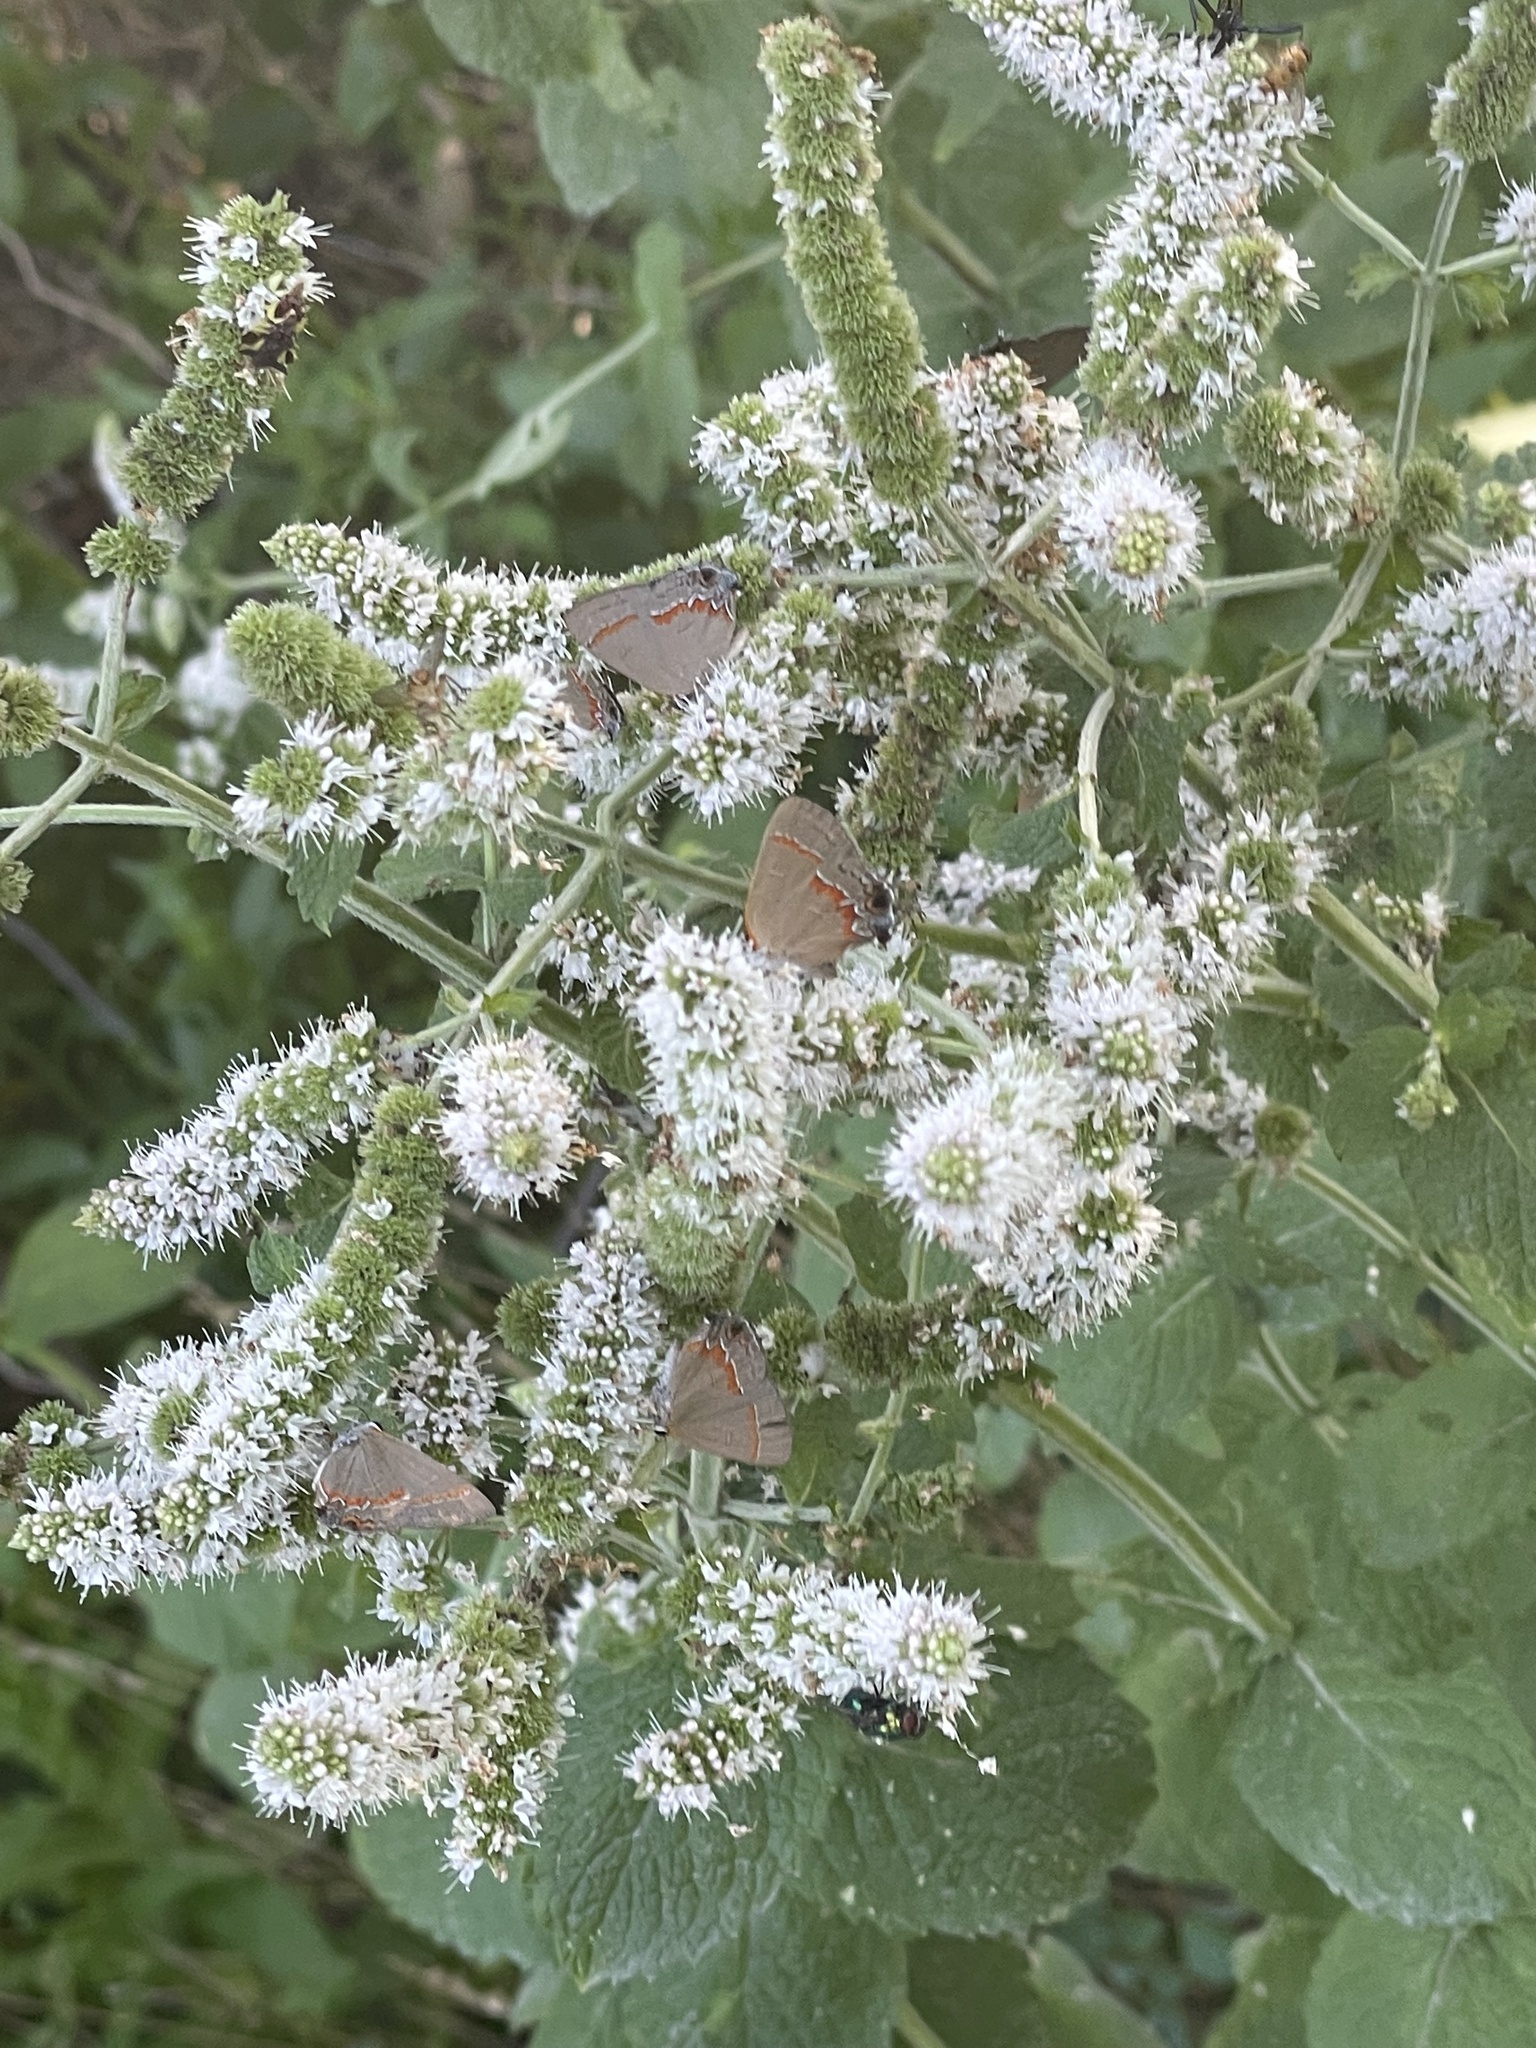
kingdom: Animalia
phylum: Arthropoda
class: Insecta
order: Lepidoptera
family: Lycaenidae
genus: Calycopis
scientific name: Calycopis cecrops
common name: Red-banded hairstreak
